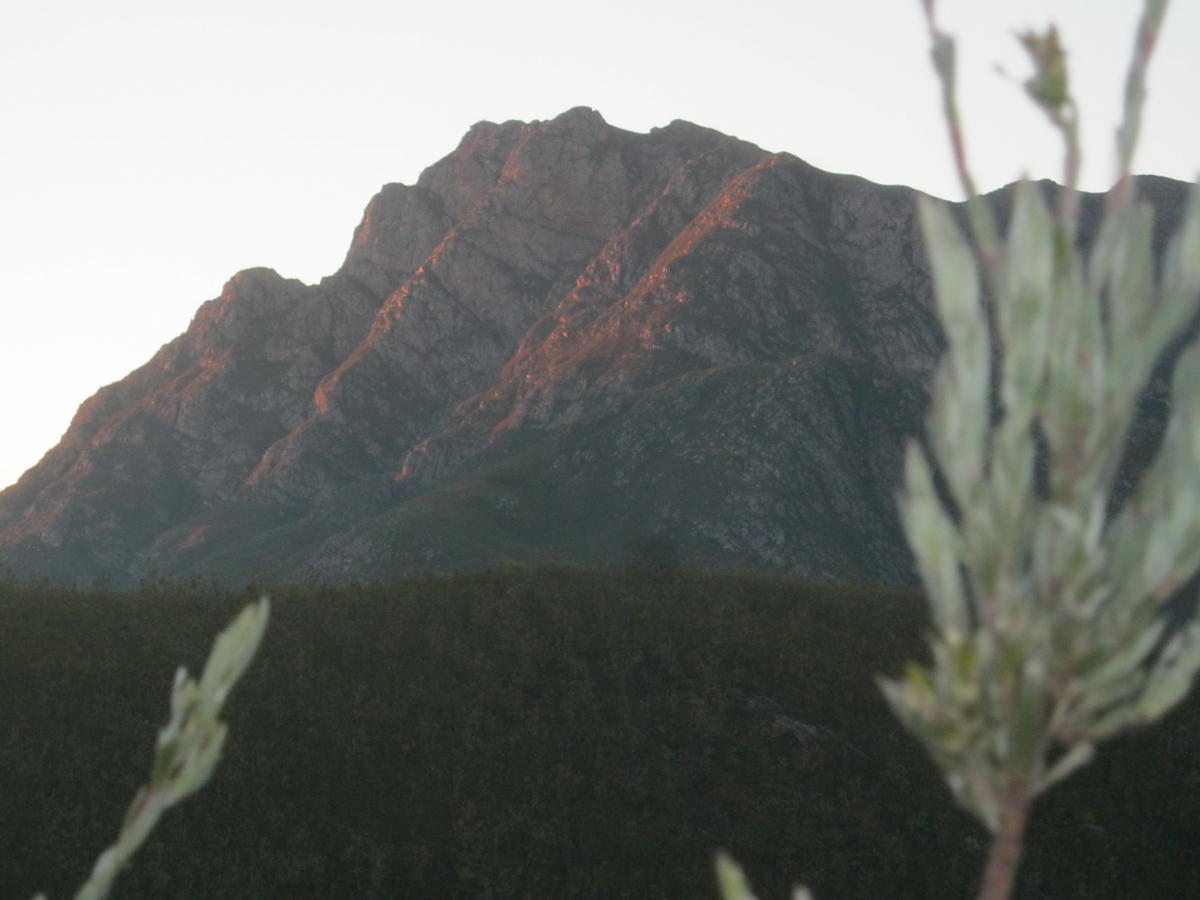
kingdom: Plantae
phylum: Tracheophyta
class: Magnoliopsida
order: Proteales
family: Proteaceae
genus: Leucadendron
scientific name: Leucadendron uliginosum
